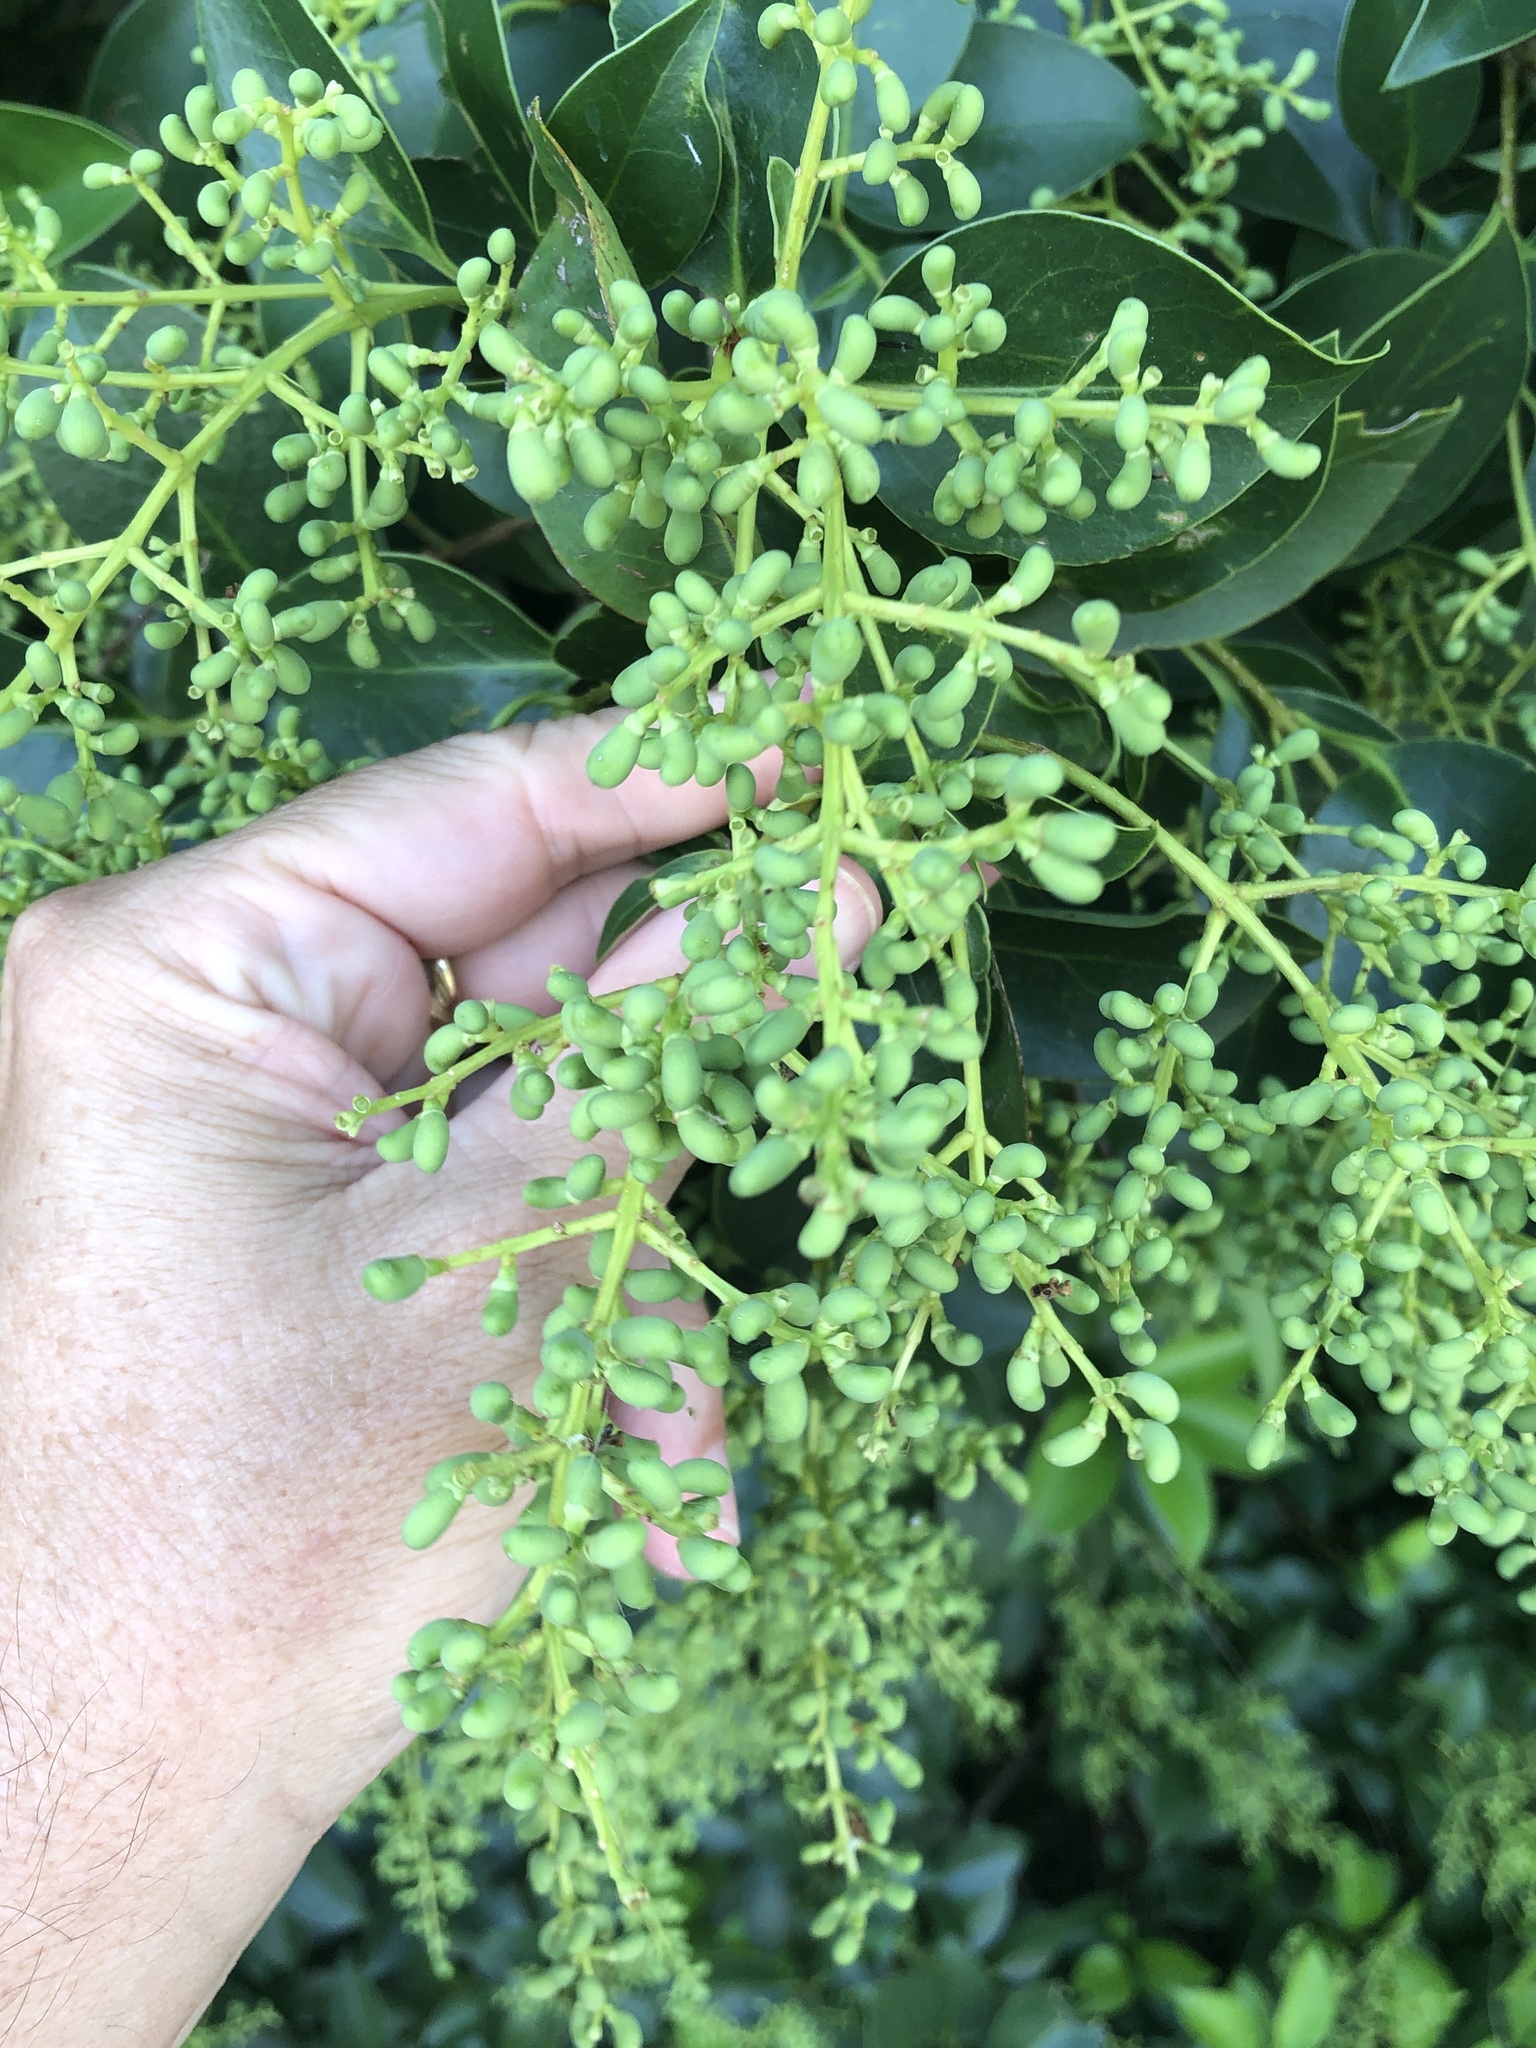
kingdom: Plantae
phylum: Tracheophyta
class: Magnoliopsida
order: Lamiales
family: Oleaceae
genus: Ligustrum
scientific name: Ligustrum lucidum
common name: Glossy privet
